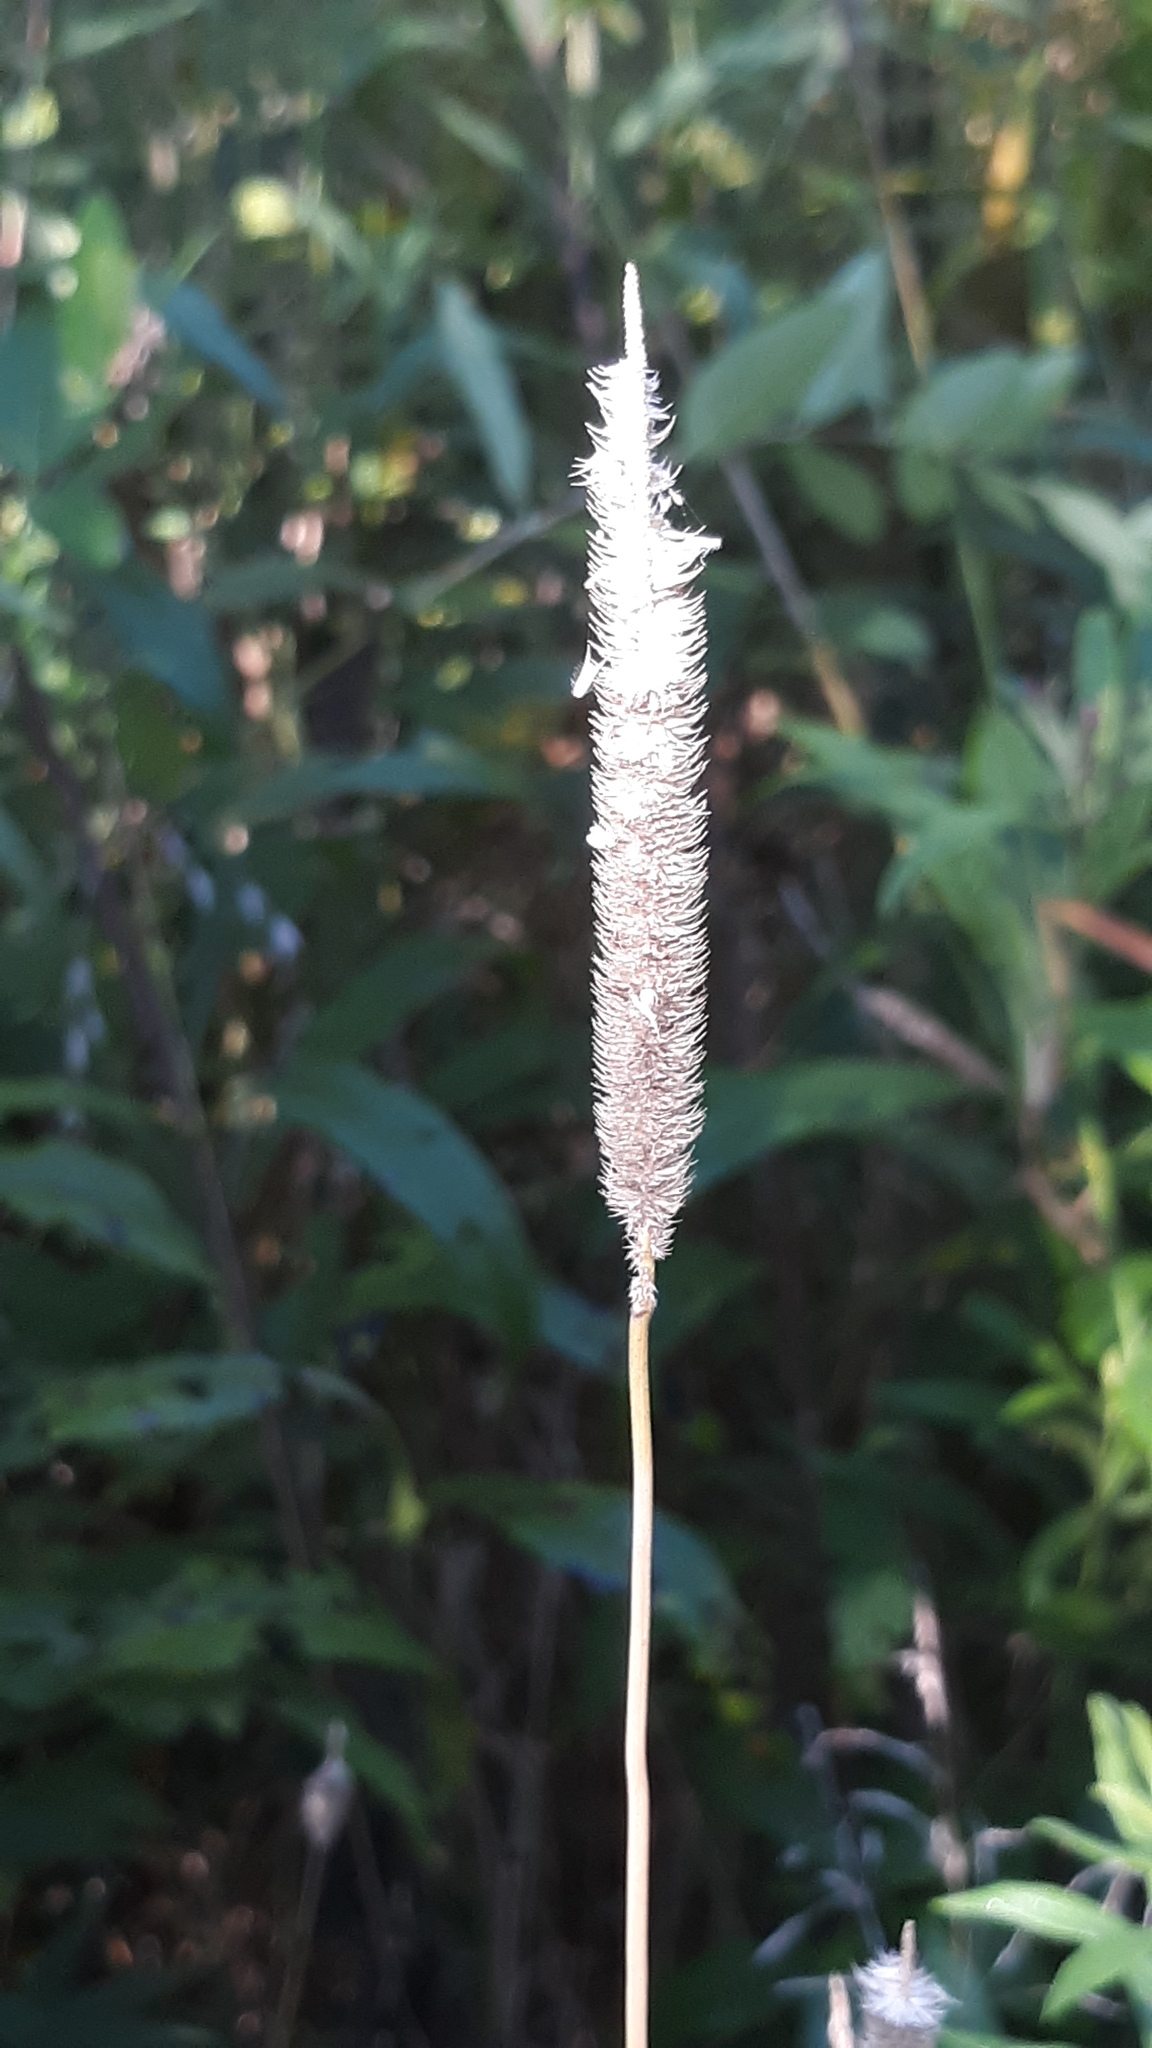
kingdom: Plantae
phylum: Tracheophyta
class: Liliopsida
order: Poales
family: Poaceae
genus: Phleum
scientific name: Phleum pratense
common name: Timothy grass
